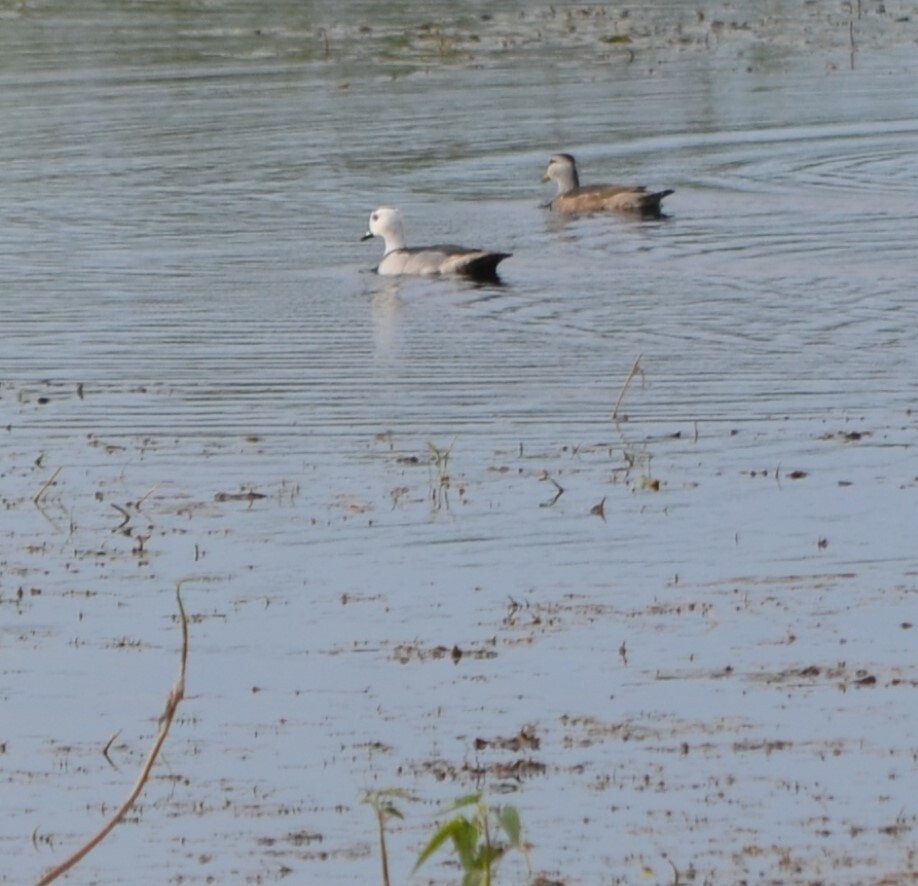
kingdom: Animalia
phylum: Chordata
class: Aves
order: Anseriformes
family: Anatidae
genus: Nettapus
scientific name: Nettapus coromandelianus
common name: Cotton pygmy-goose
